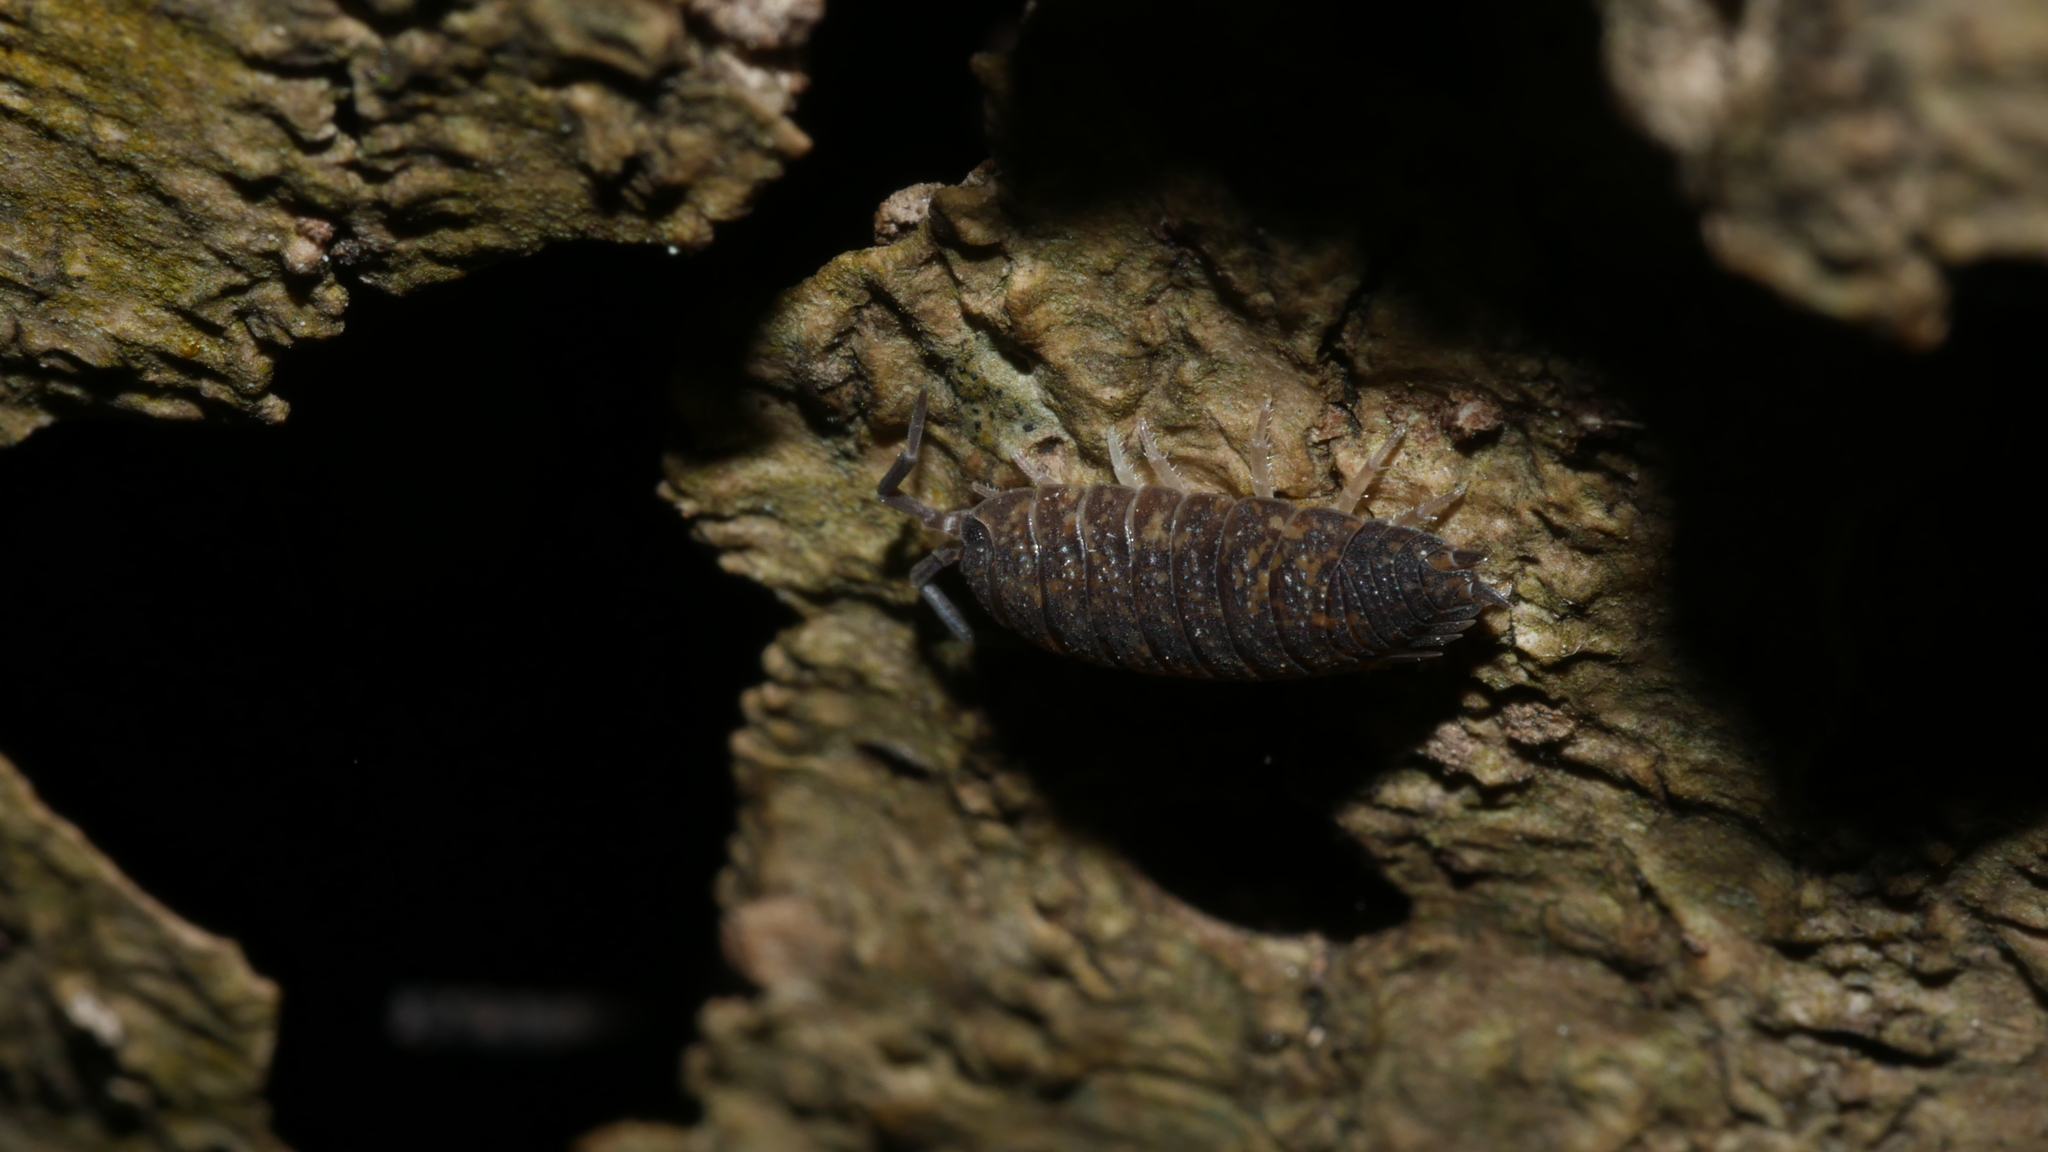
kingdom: Animalia
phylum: Arthropoda
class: Malacostraca
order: Isopoda
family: Porcellionidae
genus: Porcellio
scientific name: Porcellio scaber
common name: Common rough woodlouse
